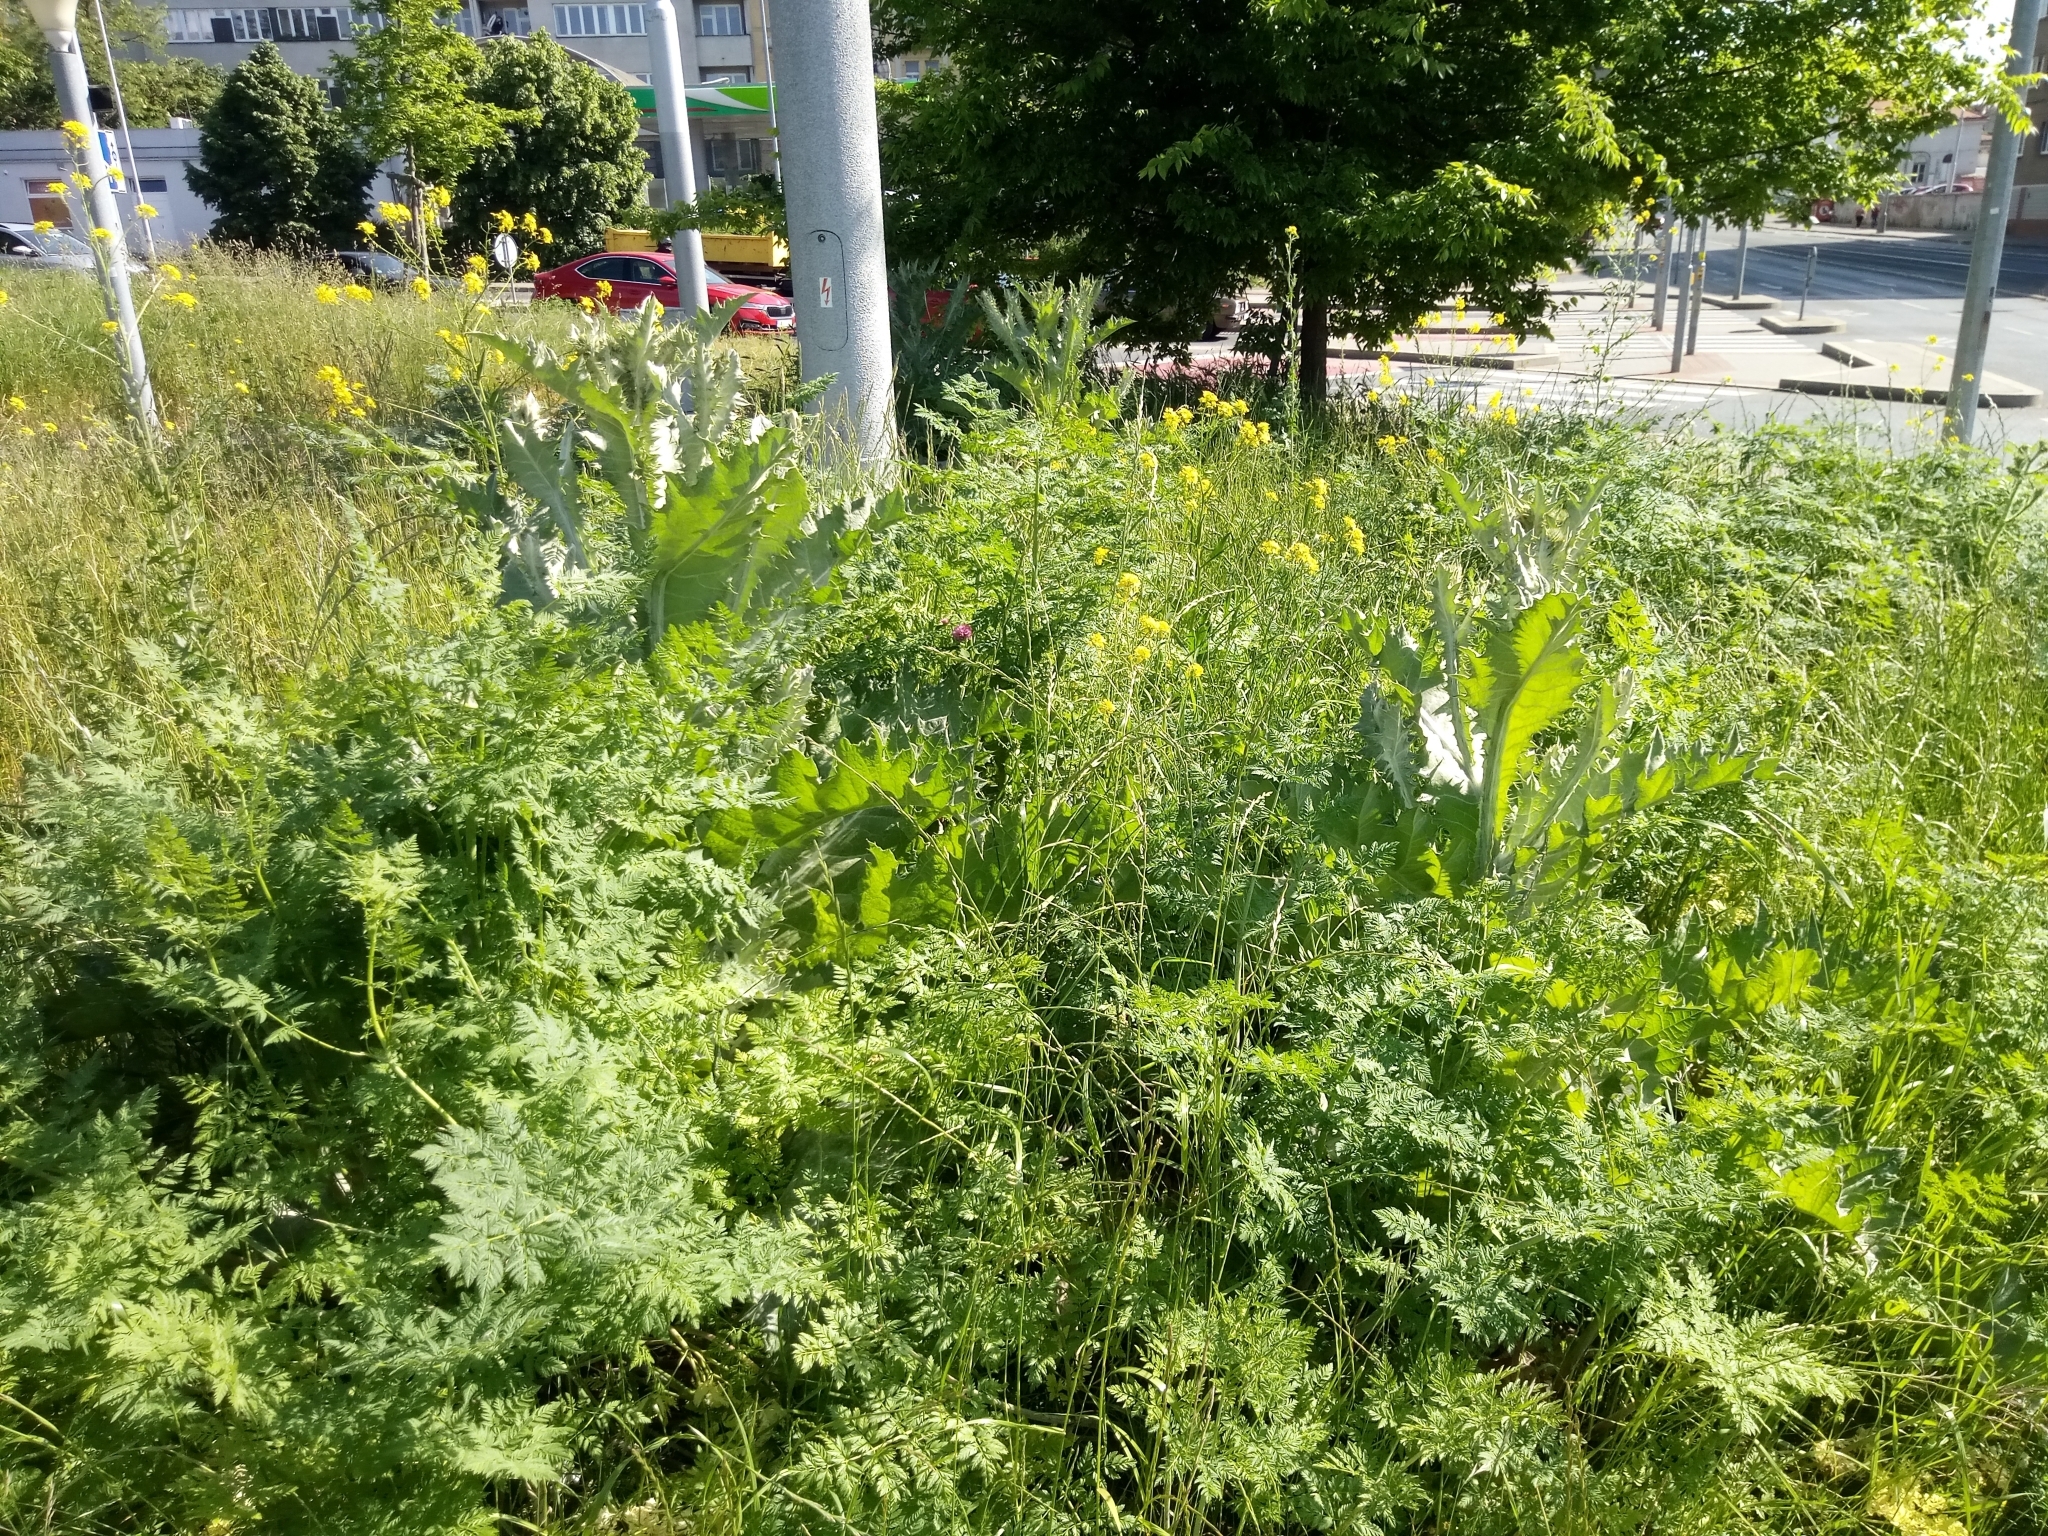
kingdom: Plantae
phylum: Tracheophyta
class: Magnoliopsida
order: Asterales
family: Asteraceae
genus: Onopordum
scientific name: Onopordum acanthium
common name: Scotch thistle
